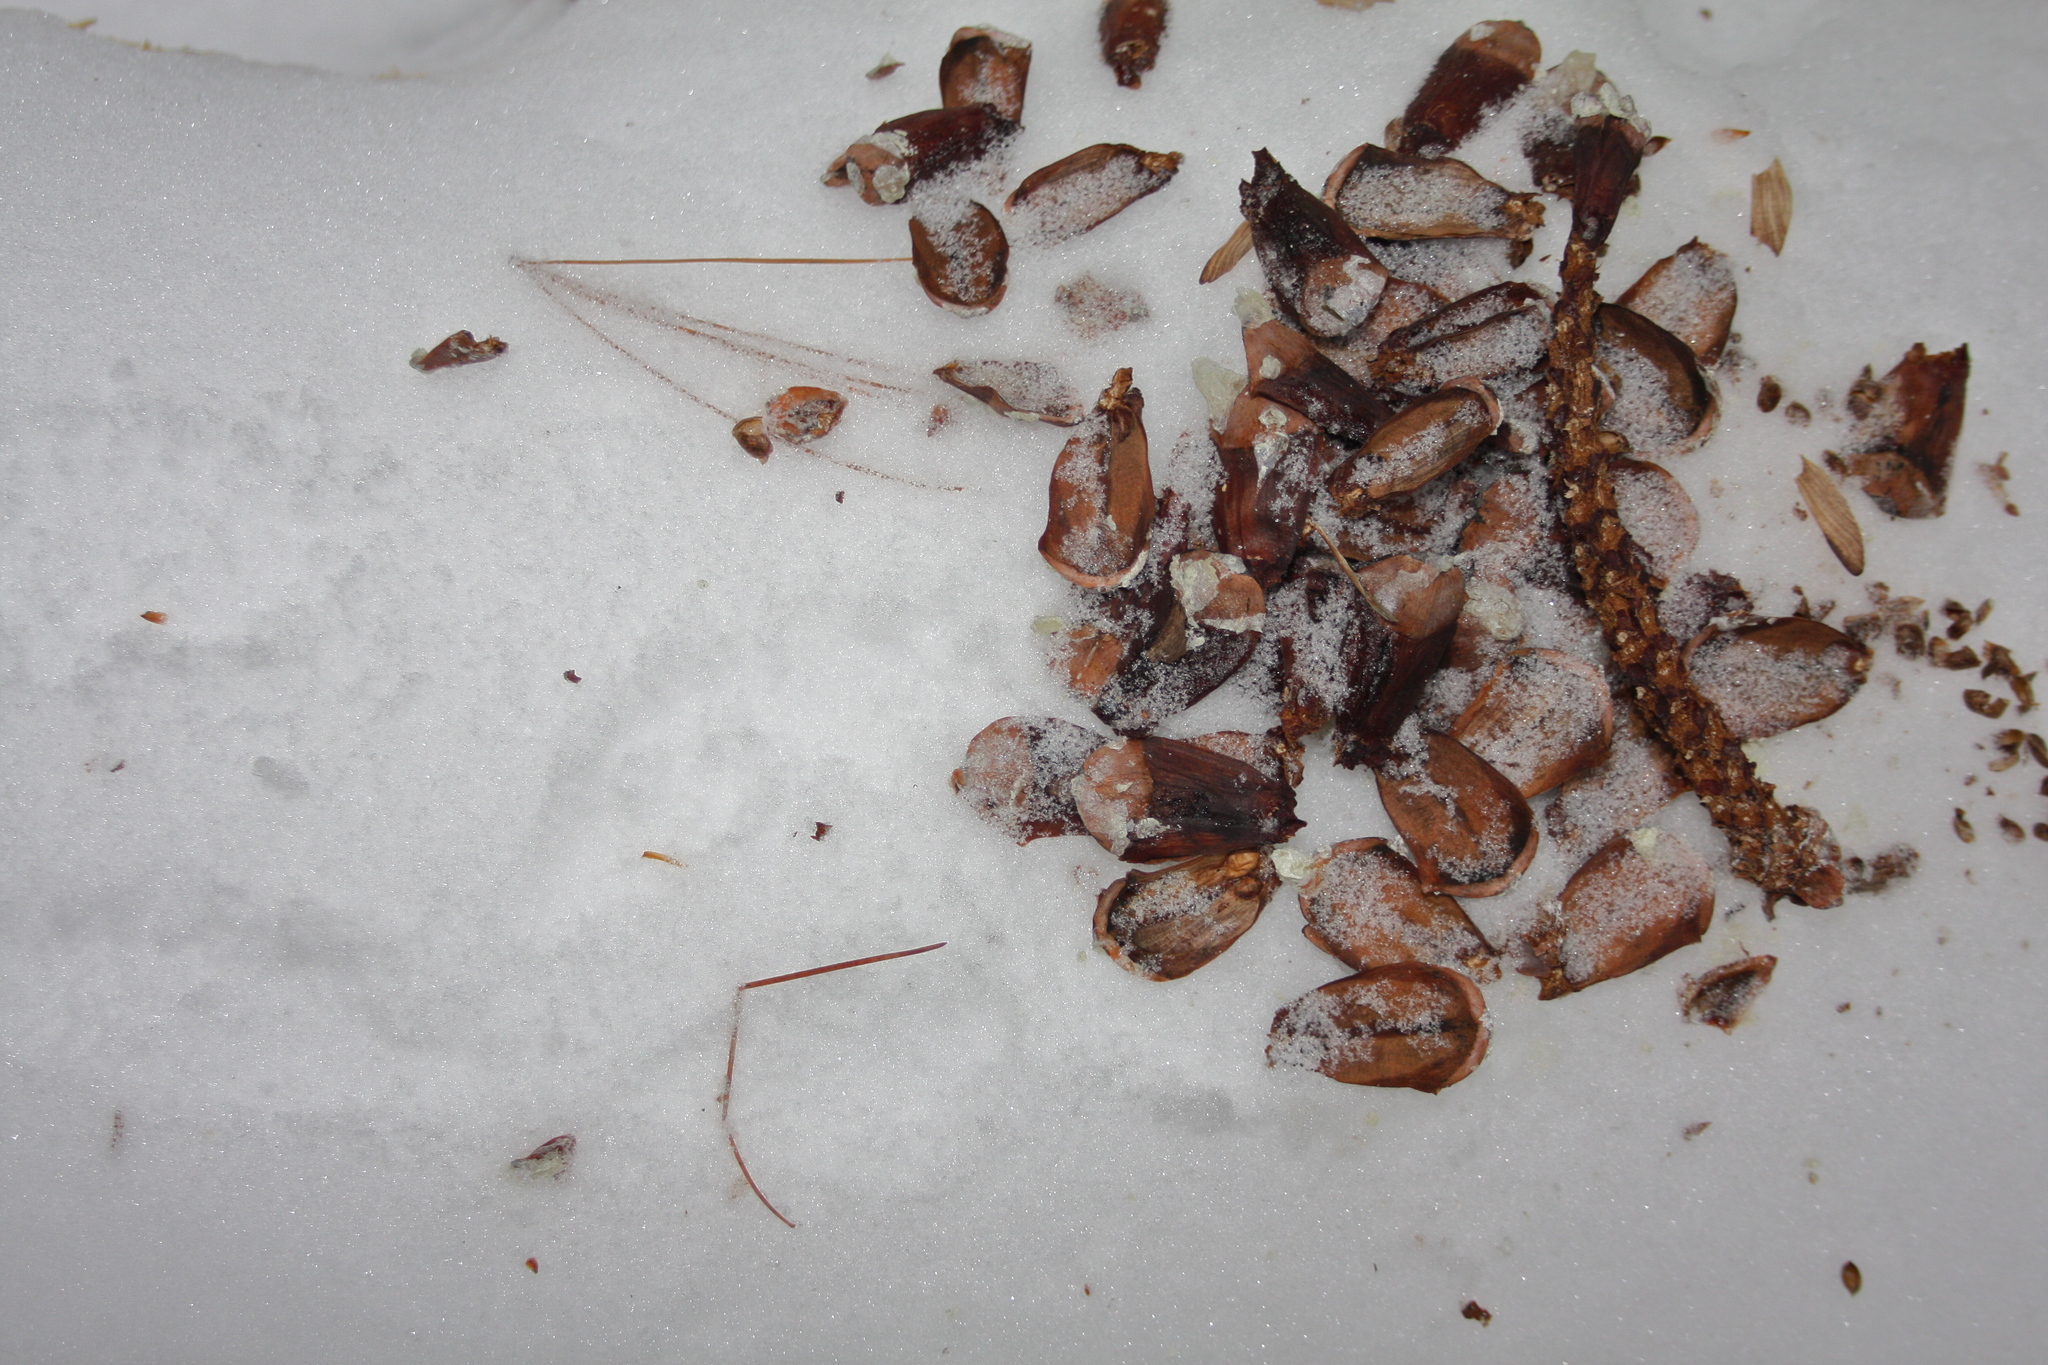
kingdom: Animalia
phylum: Chordata
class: Mammalia
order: Rodentia
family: Sciuridae
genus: Tamiasciurus
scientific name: Tamiasciurus hudsonicus
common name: Red squirrel
